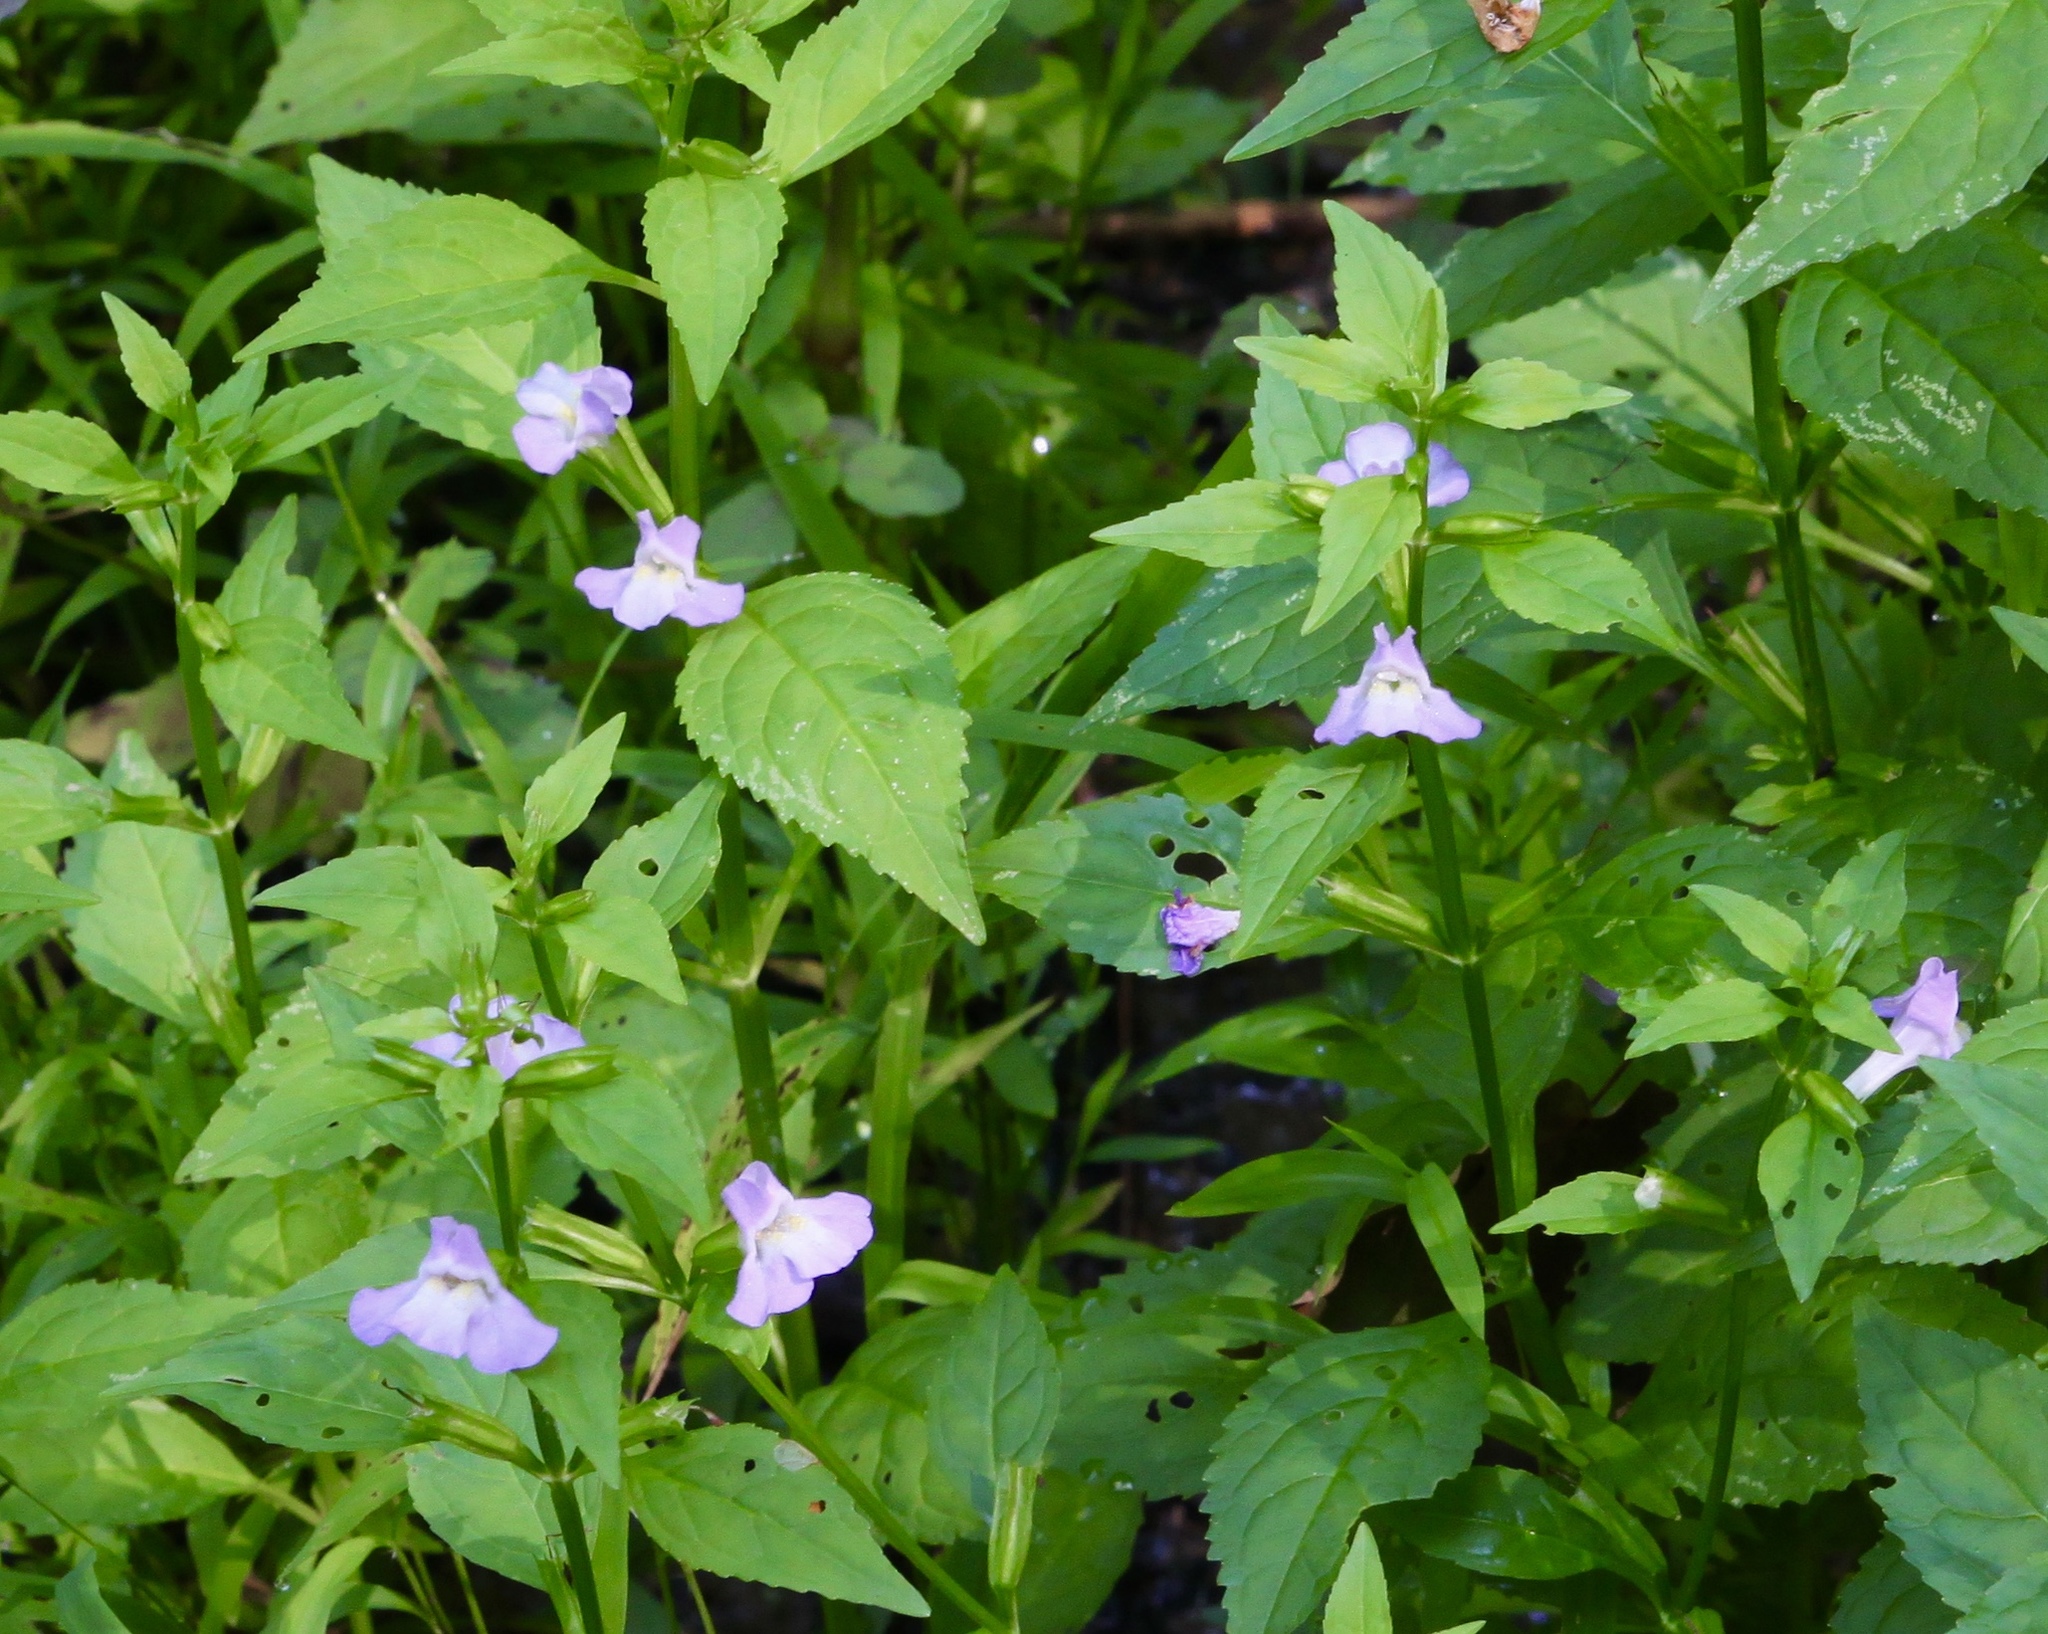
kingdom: Plantae
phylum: Tracheophyta
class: Magnoliopsida
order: Lamiales
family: Phrymaceae
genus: Mimulus
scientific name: Mimulus alatus
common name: Sharp-wing monkey-flower
